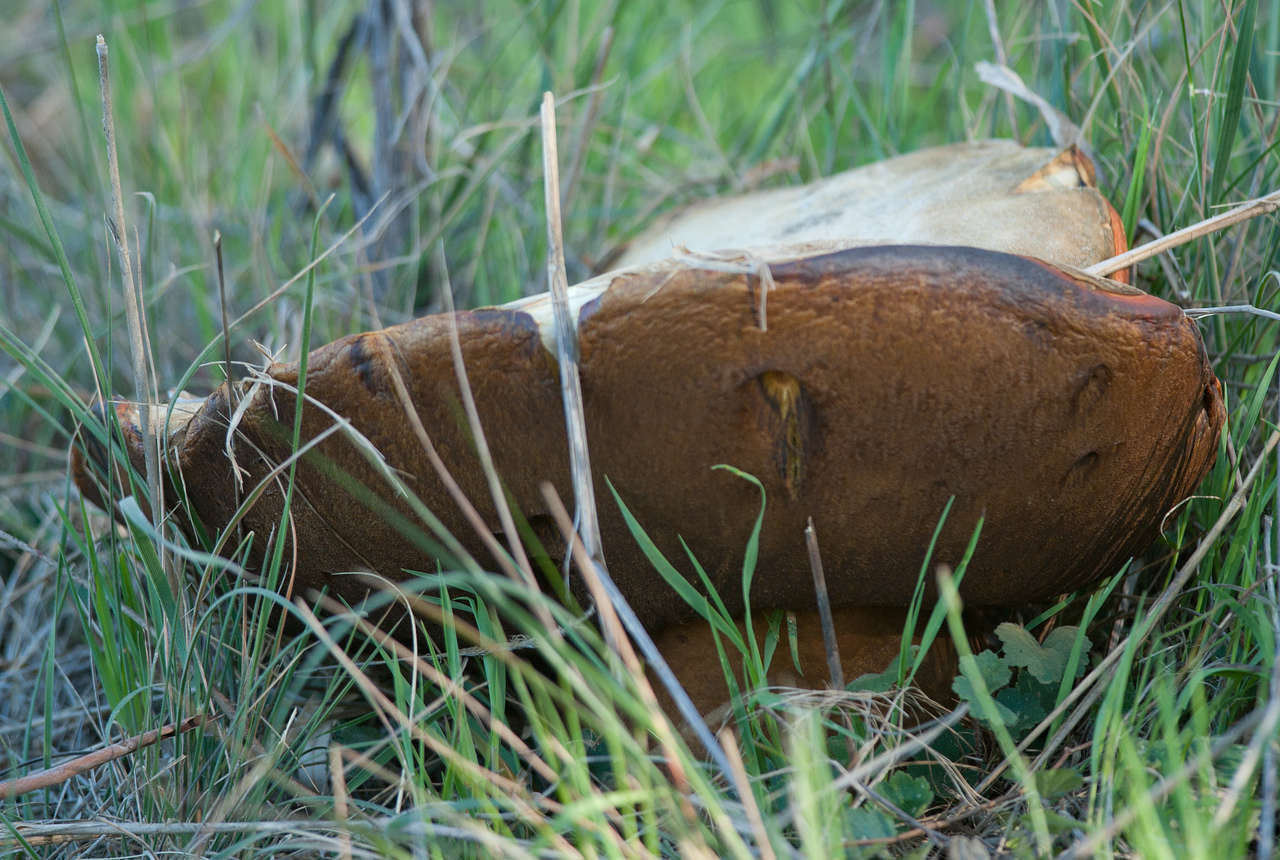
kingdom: Fungi
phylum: Basidiomycota
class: Agaricomycetes
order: Boletales
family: Boletinellaceae
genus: Phlebopus
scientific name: Phlebopus marginatus
